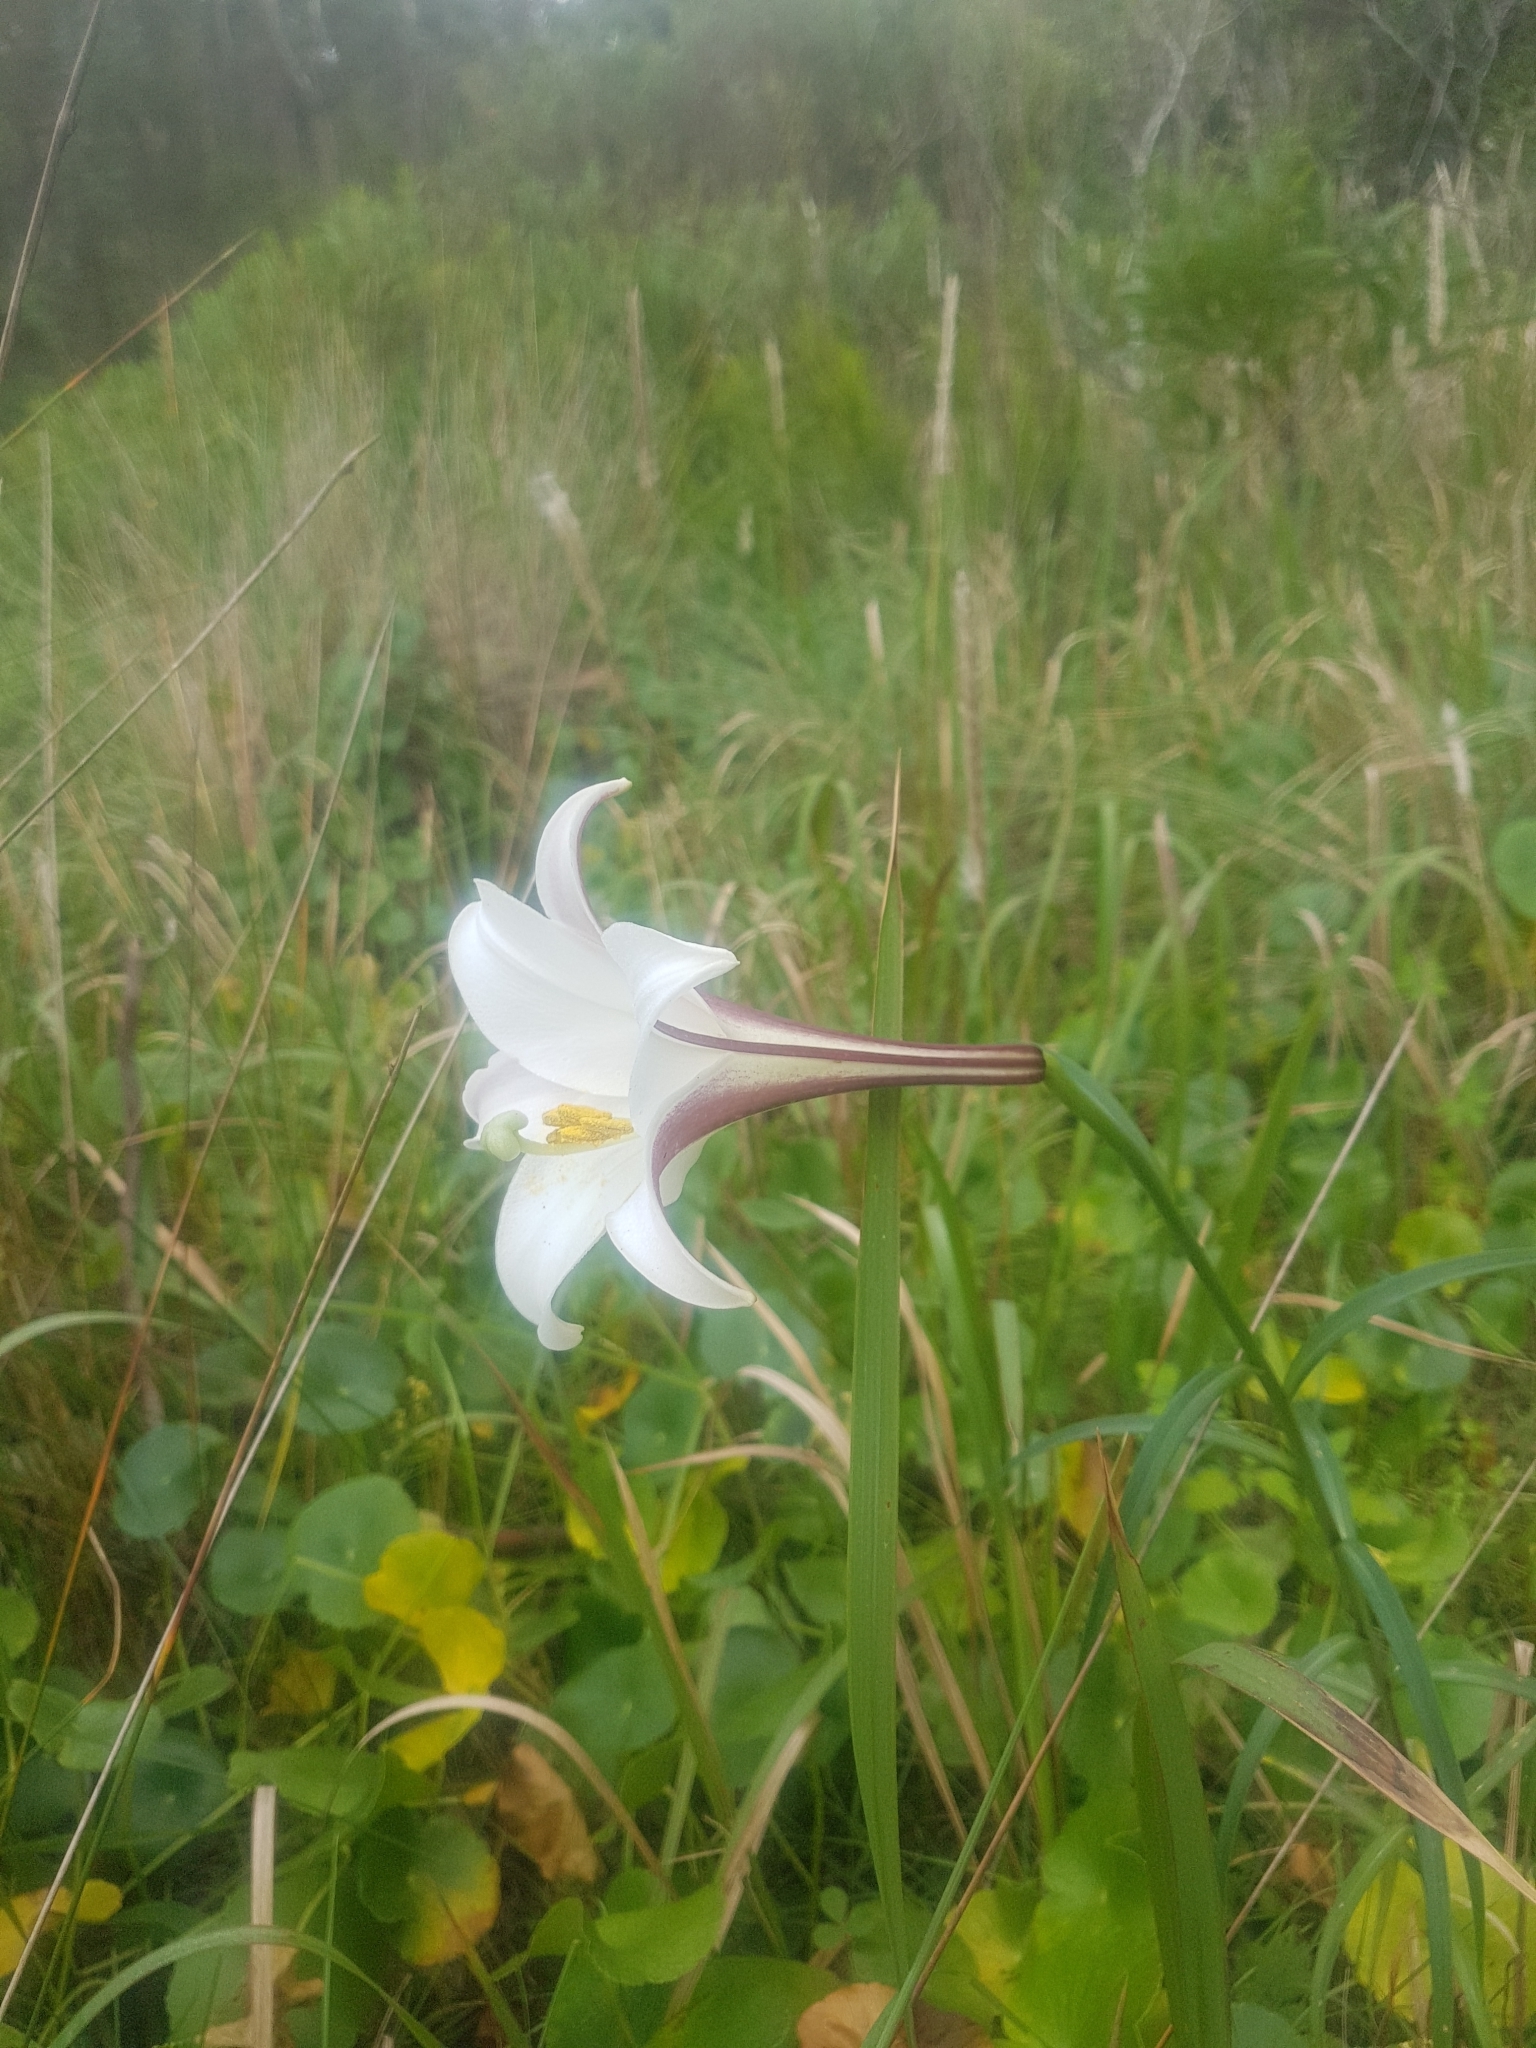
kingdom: Plantae
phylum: Tracheophyta
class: Liliopsida
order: Liliales
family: Liliaceae
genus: Lilium
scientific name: Lilium formosanum
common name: Formosa lily
